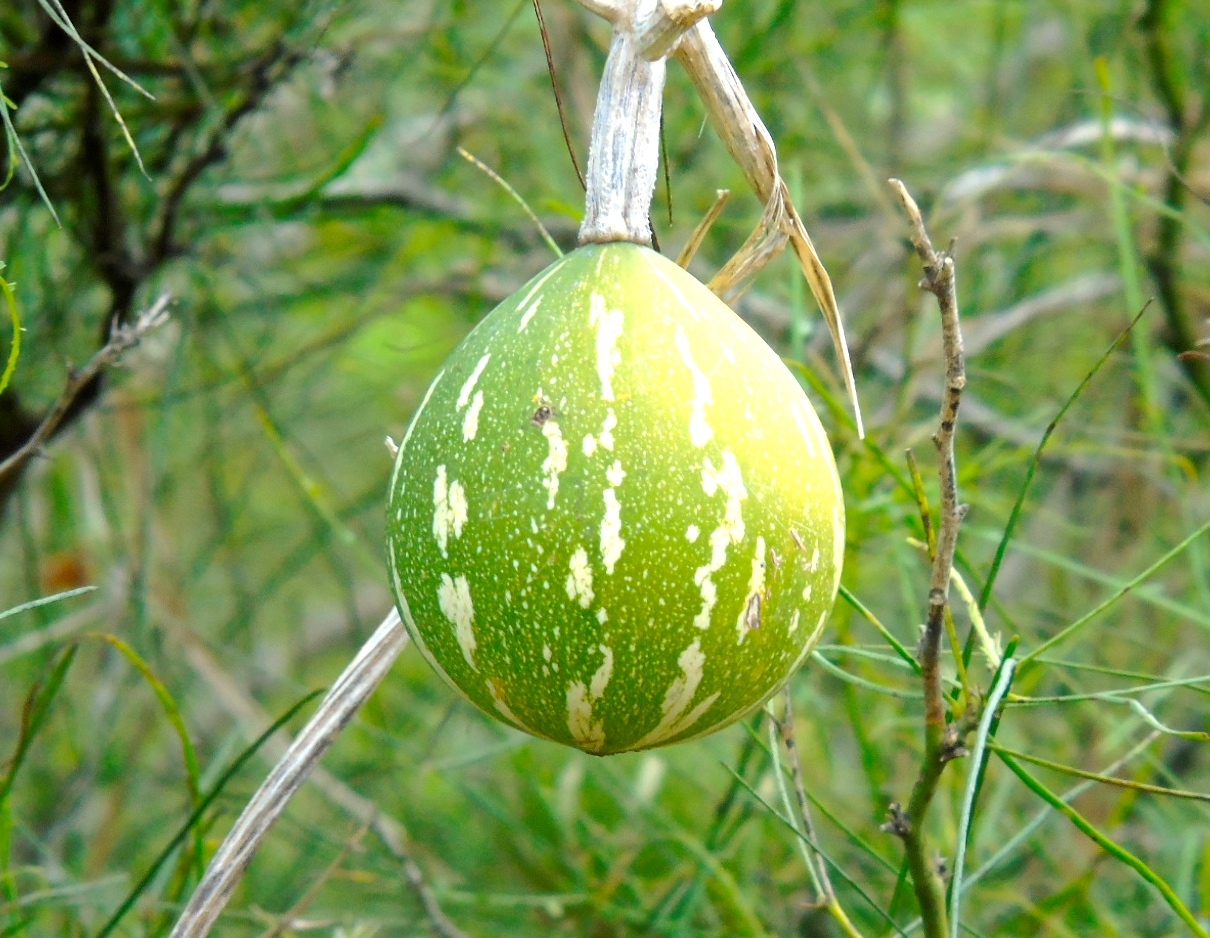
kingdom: Plantae
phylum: Tracheophyta
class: Magnoliopsida
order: Cucurbitales
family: Cucurbitaceae
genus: Cucurbita
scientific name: Cucurbita argyrosperma
